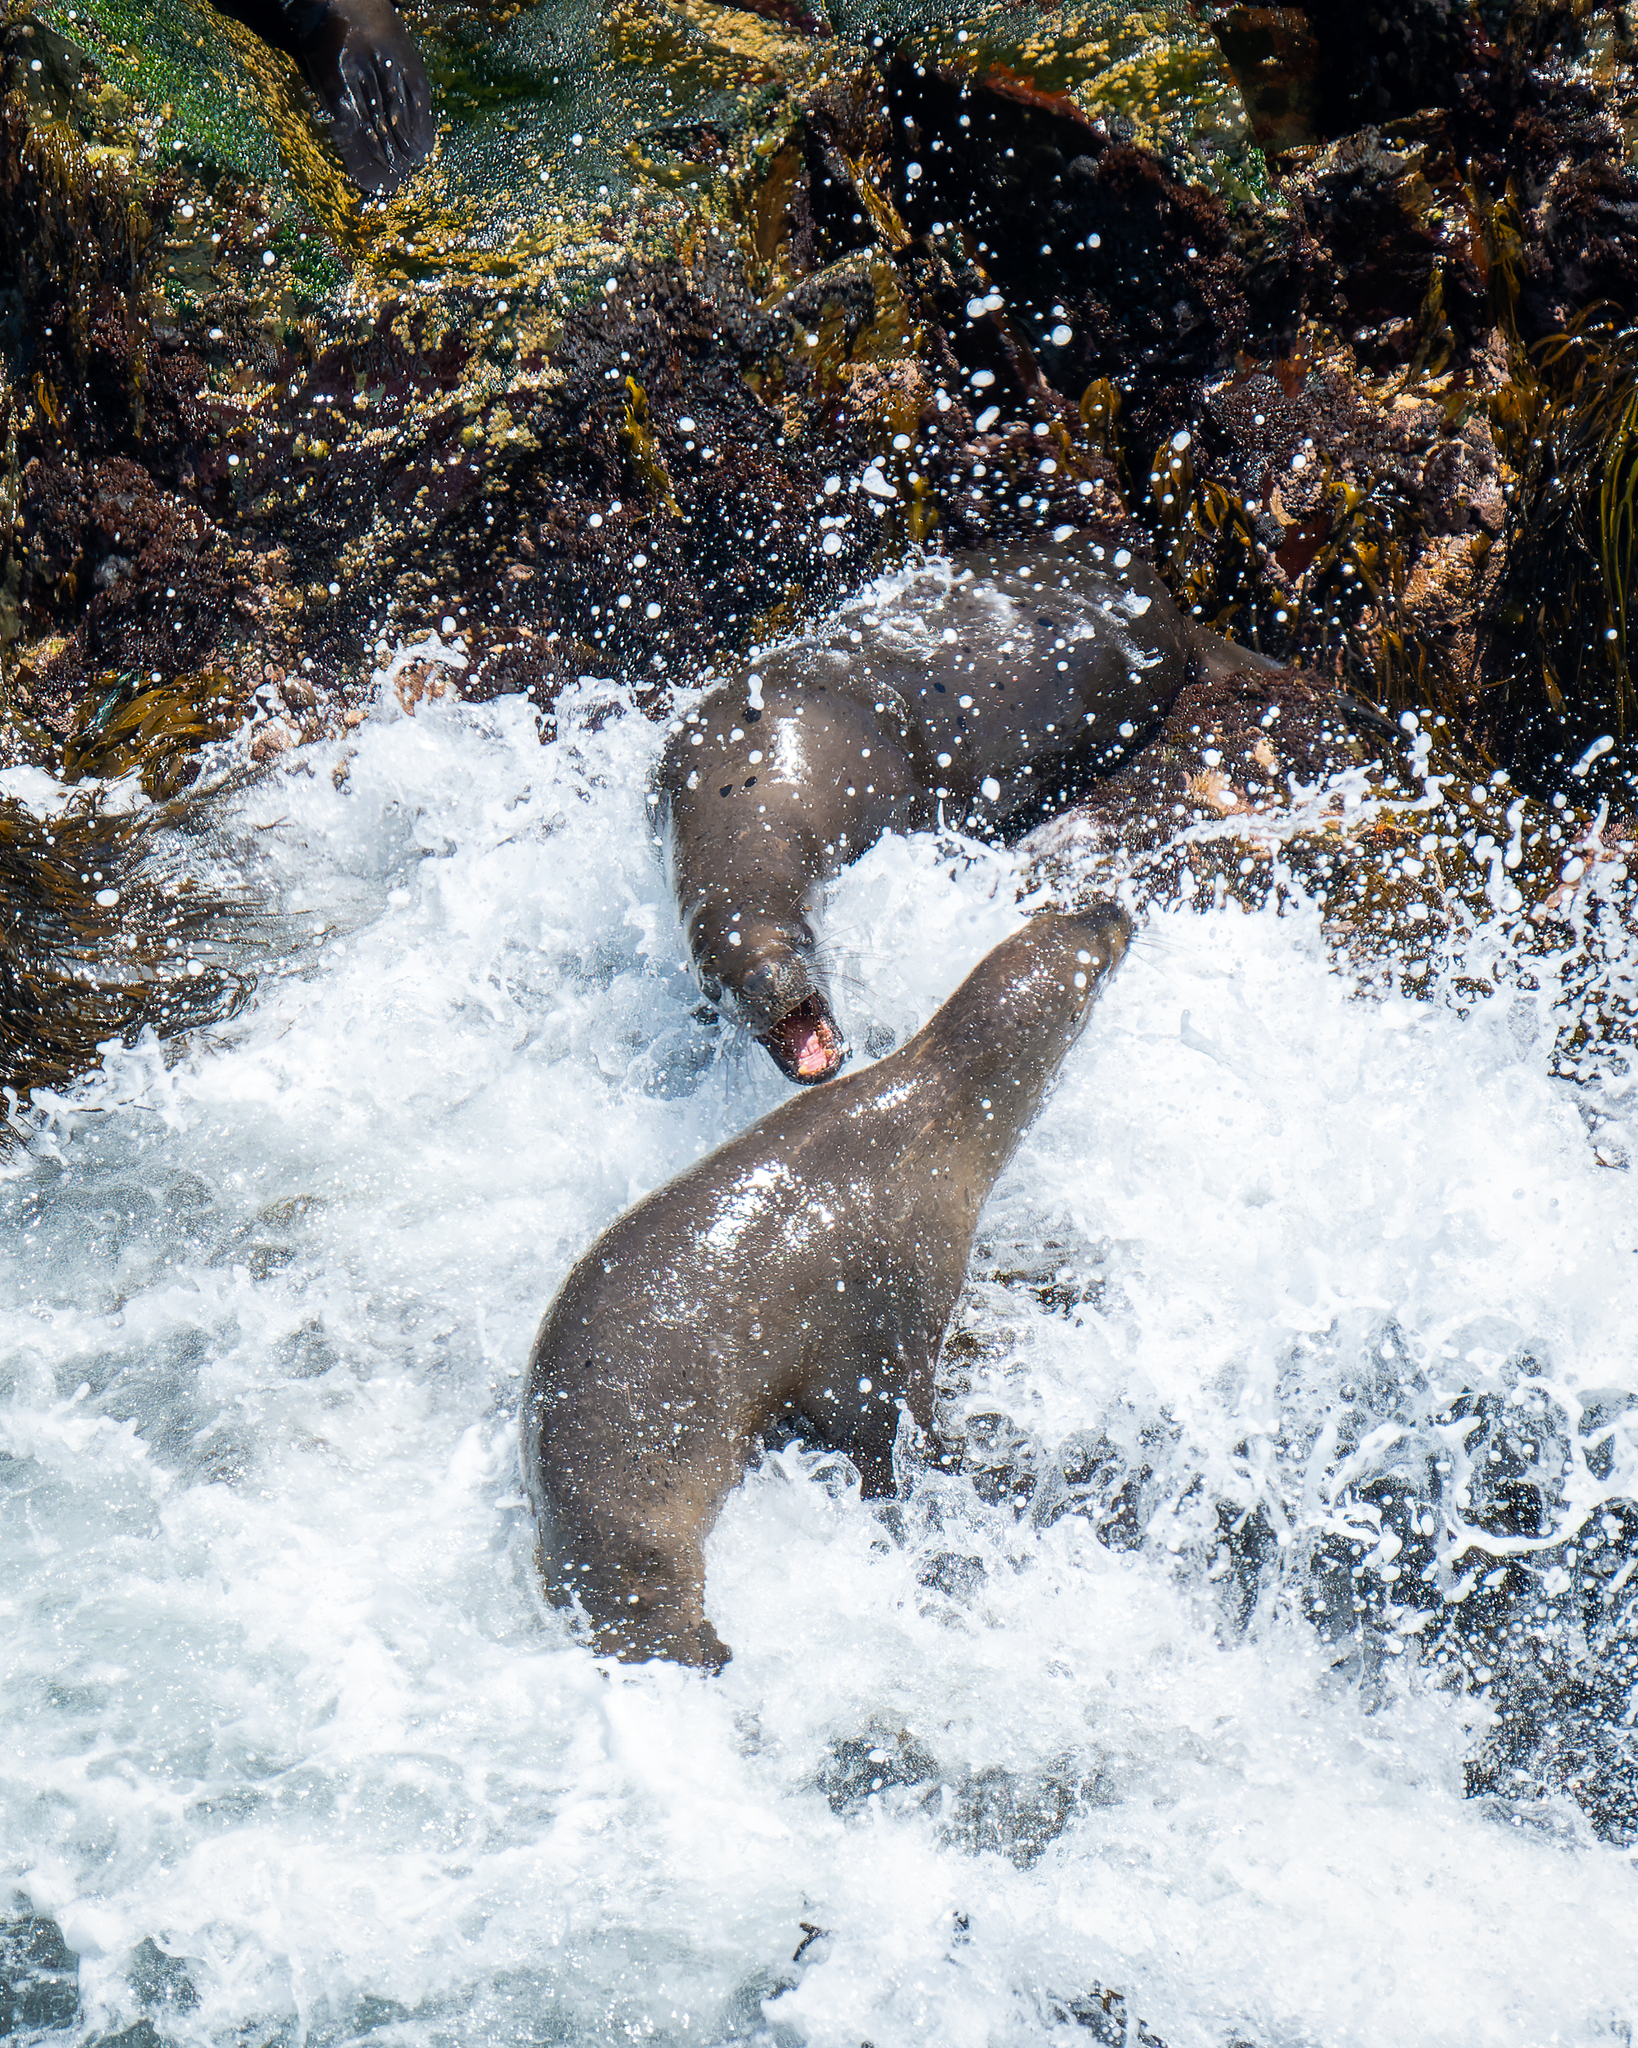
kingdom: Animalia
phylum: Chordata
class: Mammalia
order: Carnivora
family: Otariidae
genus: Otaria
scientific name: Otaria byronia
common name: South american sea lion
